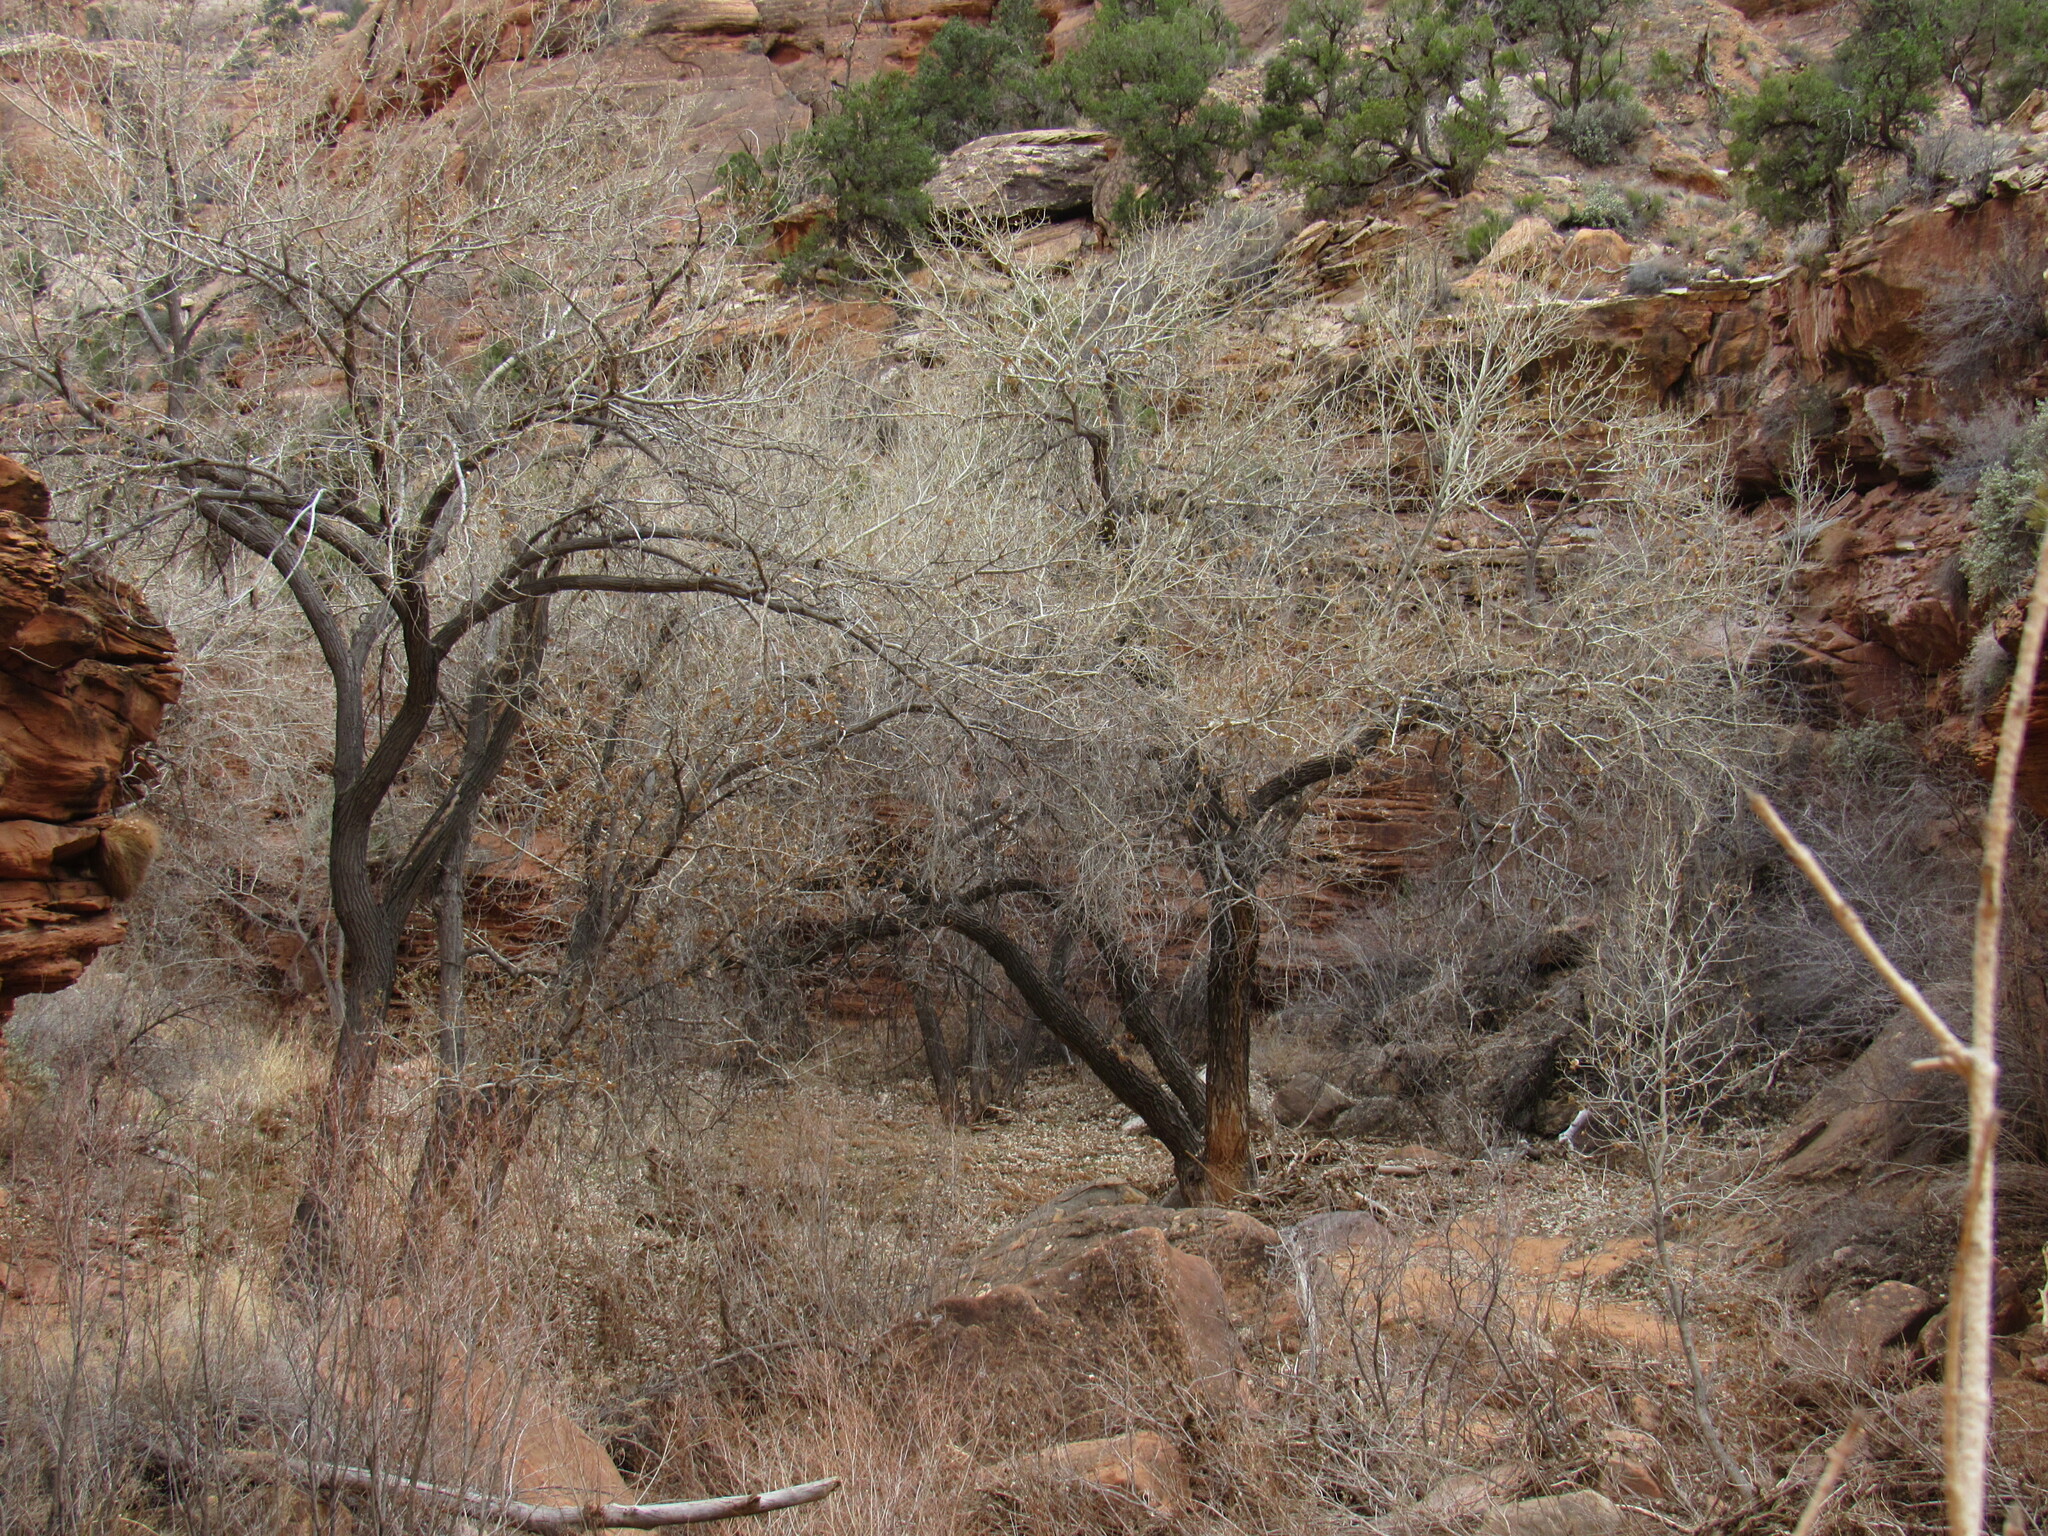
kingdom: Plantae
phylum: Tracheophyta
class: Magnoliopsida
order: Malpighiales
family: Salicaceae
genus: Populus
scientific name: Populus fremontii
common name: Fremont's cottonwood
